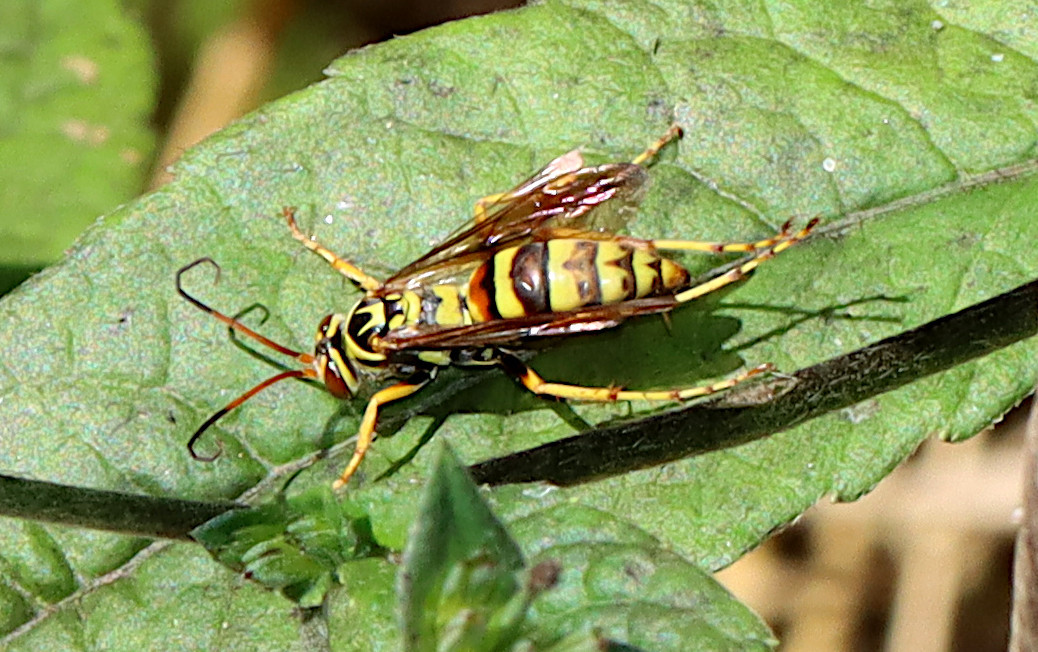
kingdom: Animalia
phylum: Arthropoda
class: Insecta
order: Hymenoptera
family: Pompilidae
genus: Poecilopompilus
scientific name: Poecilopompilus interruptus
